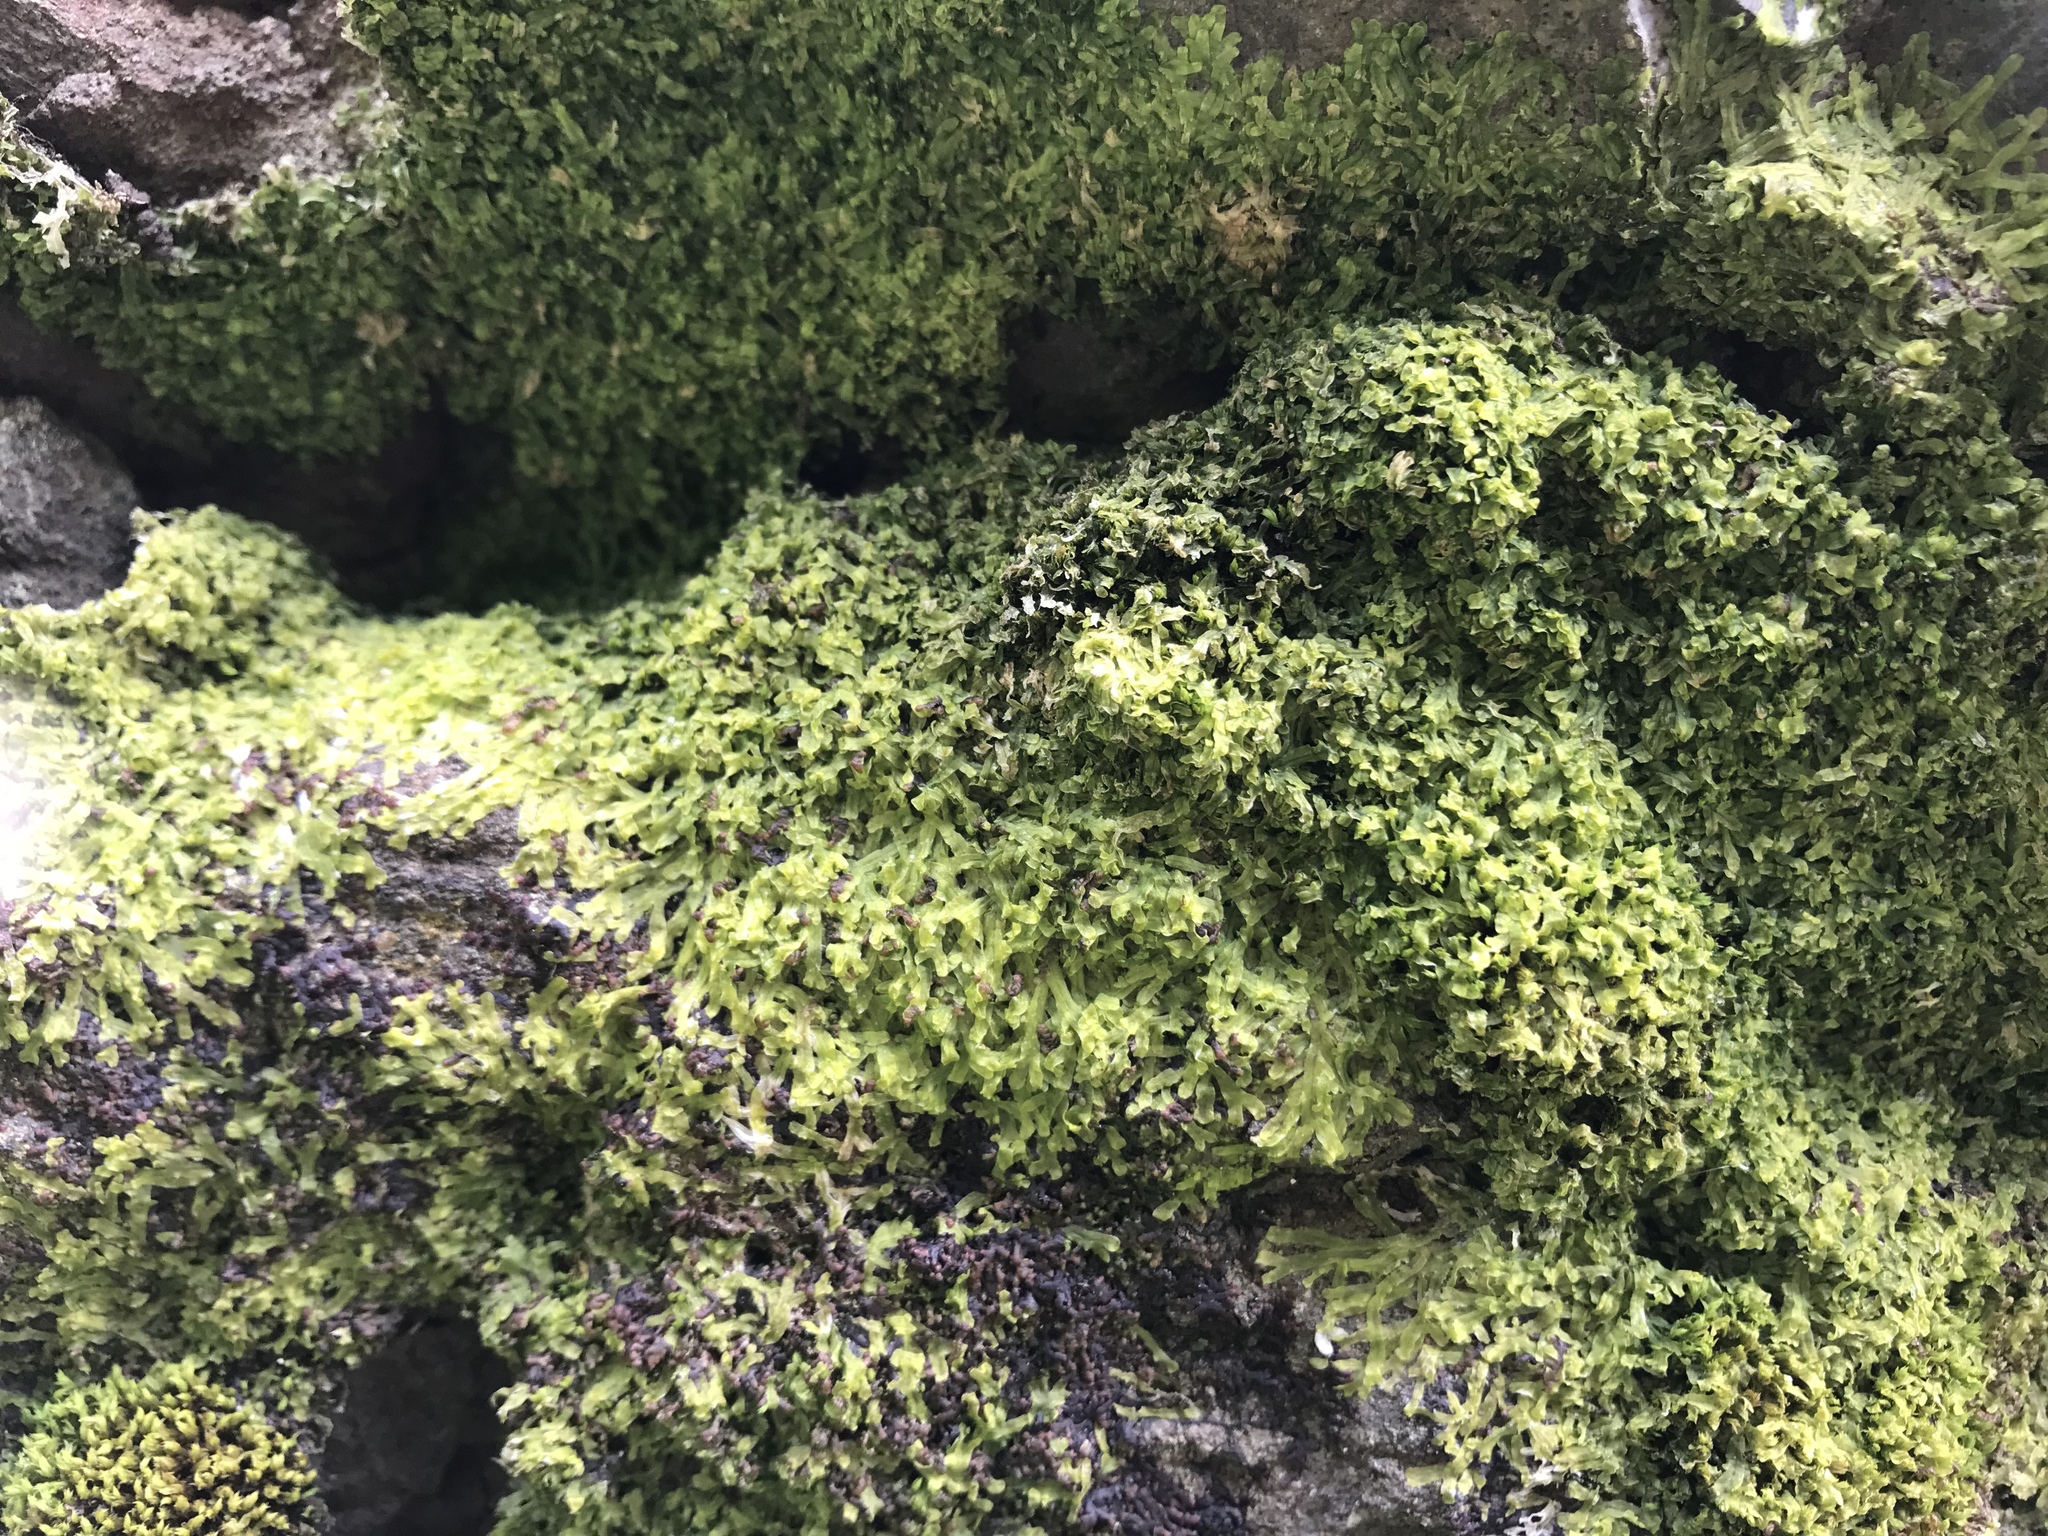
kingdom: Plantae
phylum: Marchantiophyta
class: Jungermanniopsida
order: Metzgeriales
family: Metzgeriaceae
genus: Metzgeria
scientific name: Metzgeria furcata
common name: Forked veilwort
